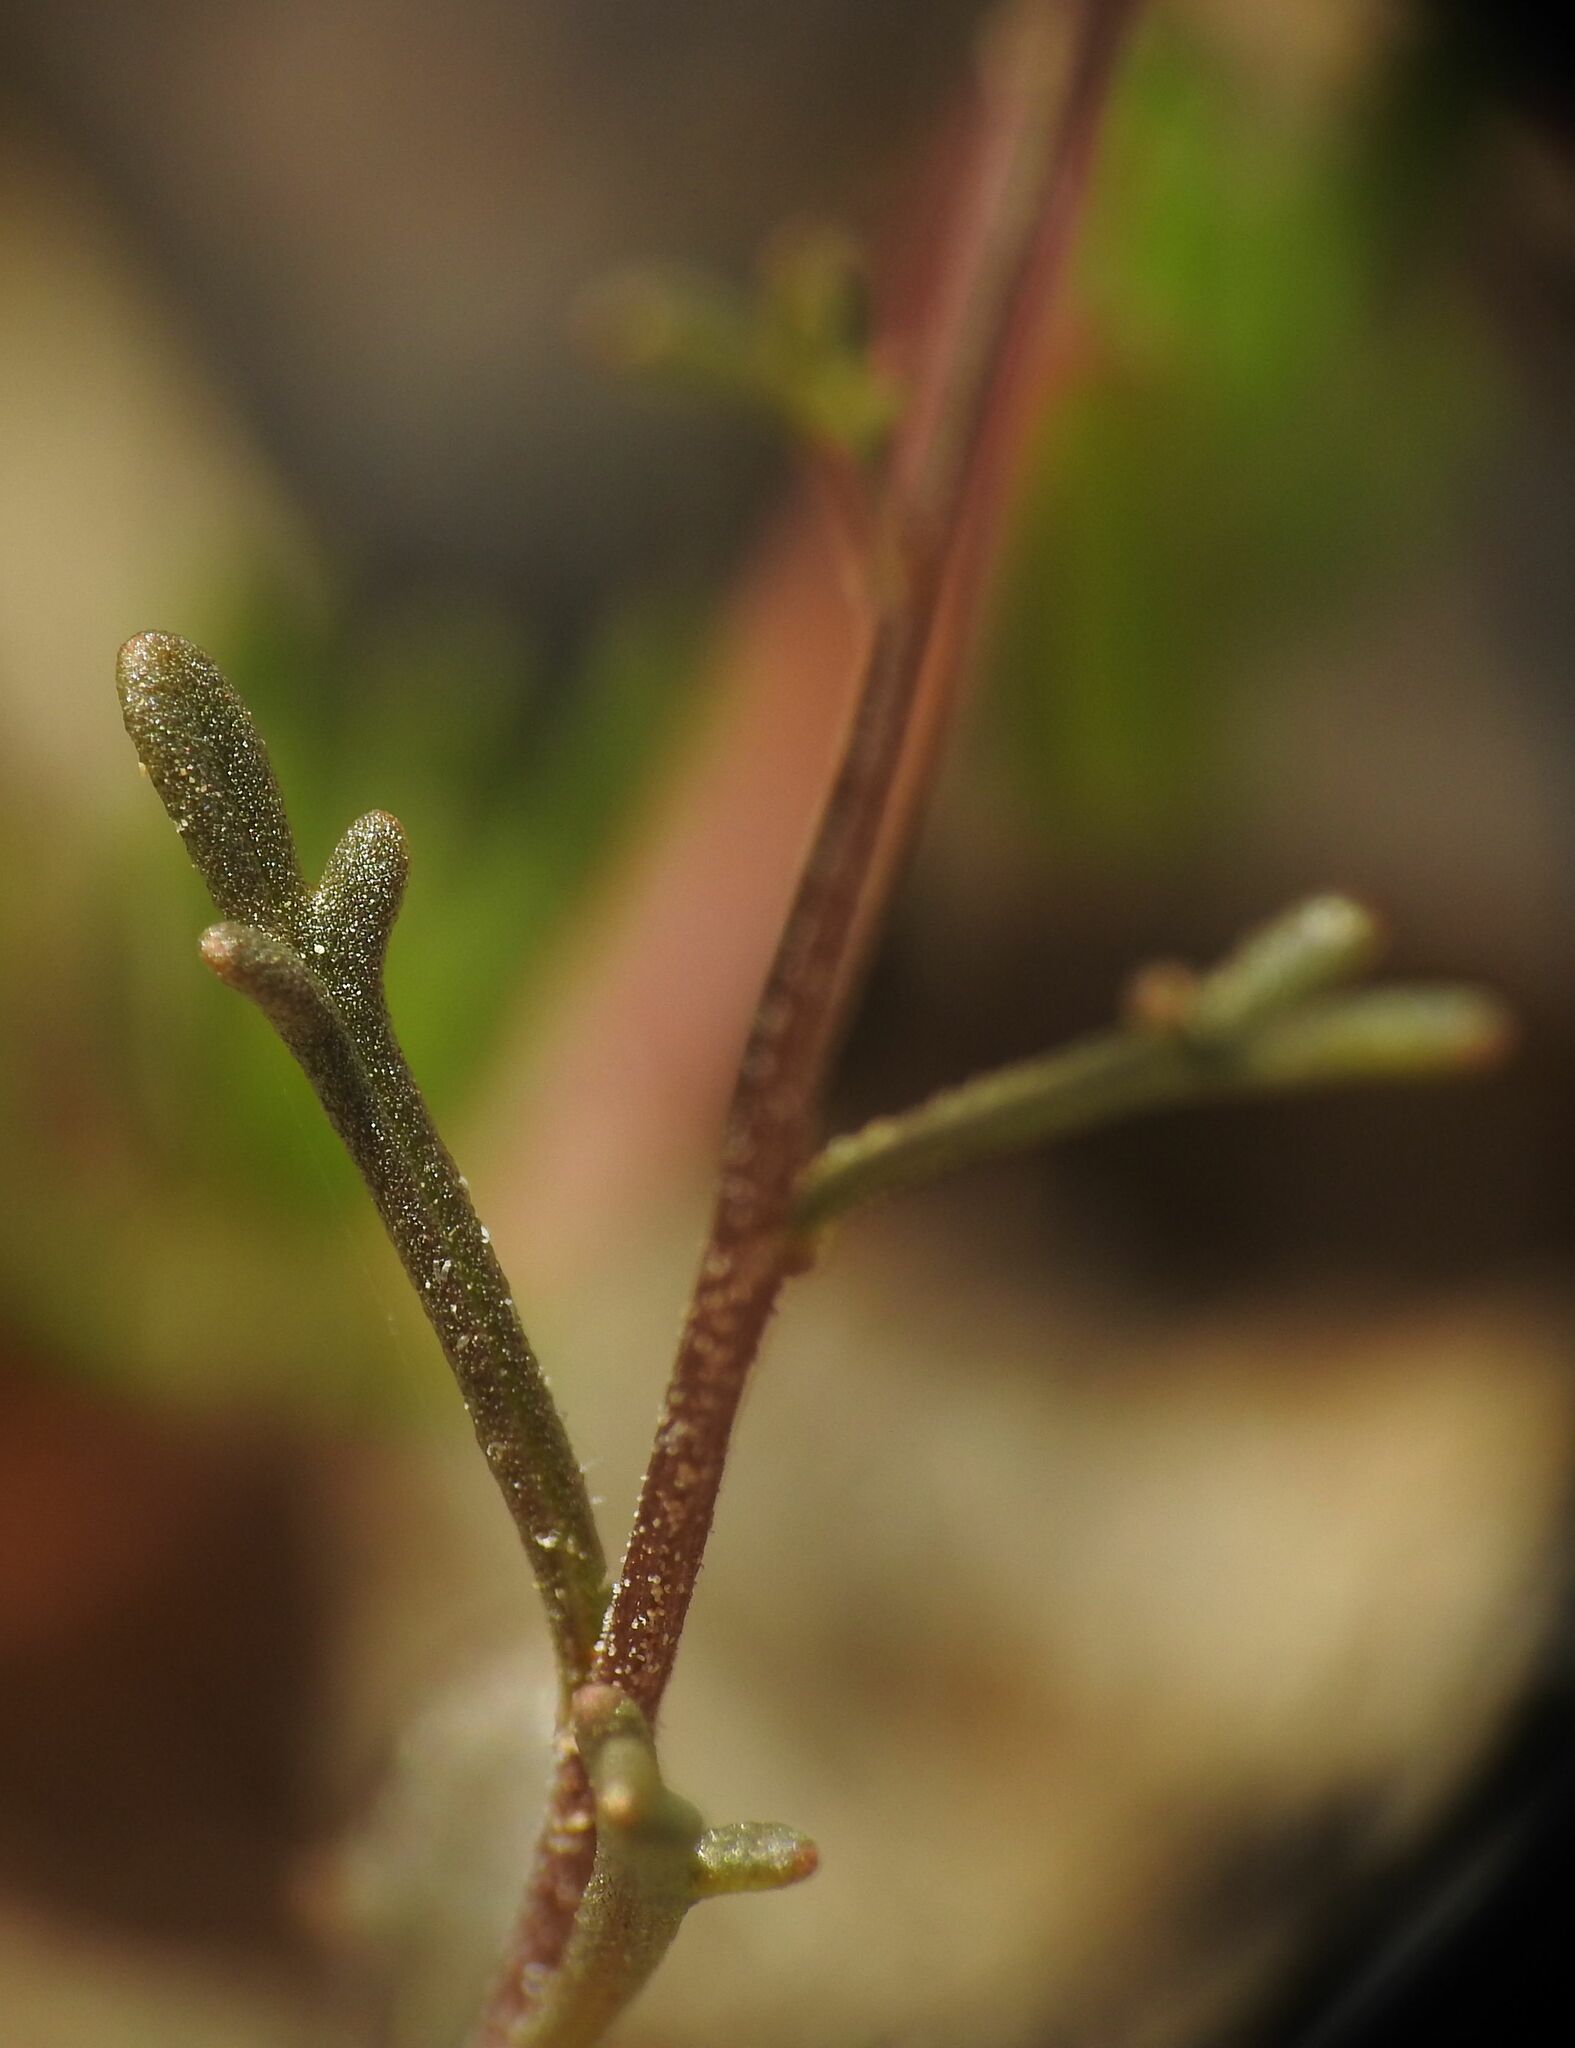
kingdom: Plantae
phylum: Tracheophyta
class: Magnoliopsida
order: Brassicales
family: Brassicaceae
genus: Iberis
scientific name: Iberis pinnata
